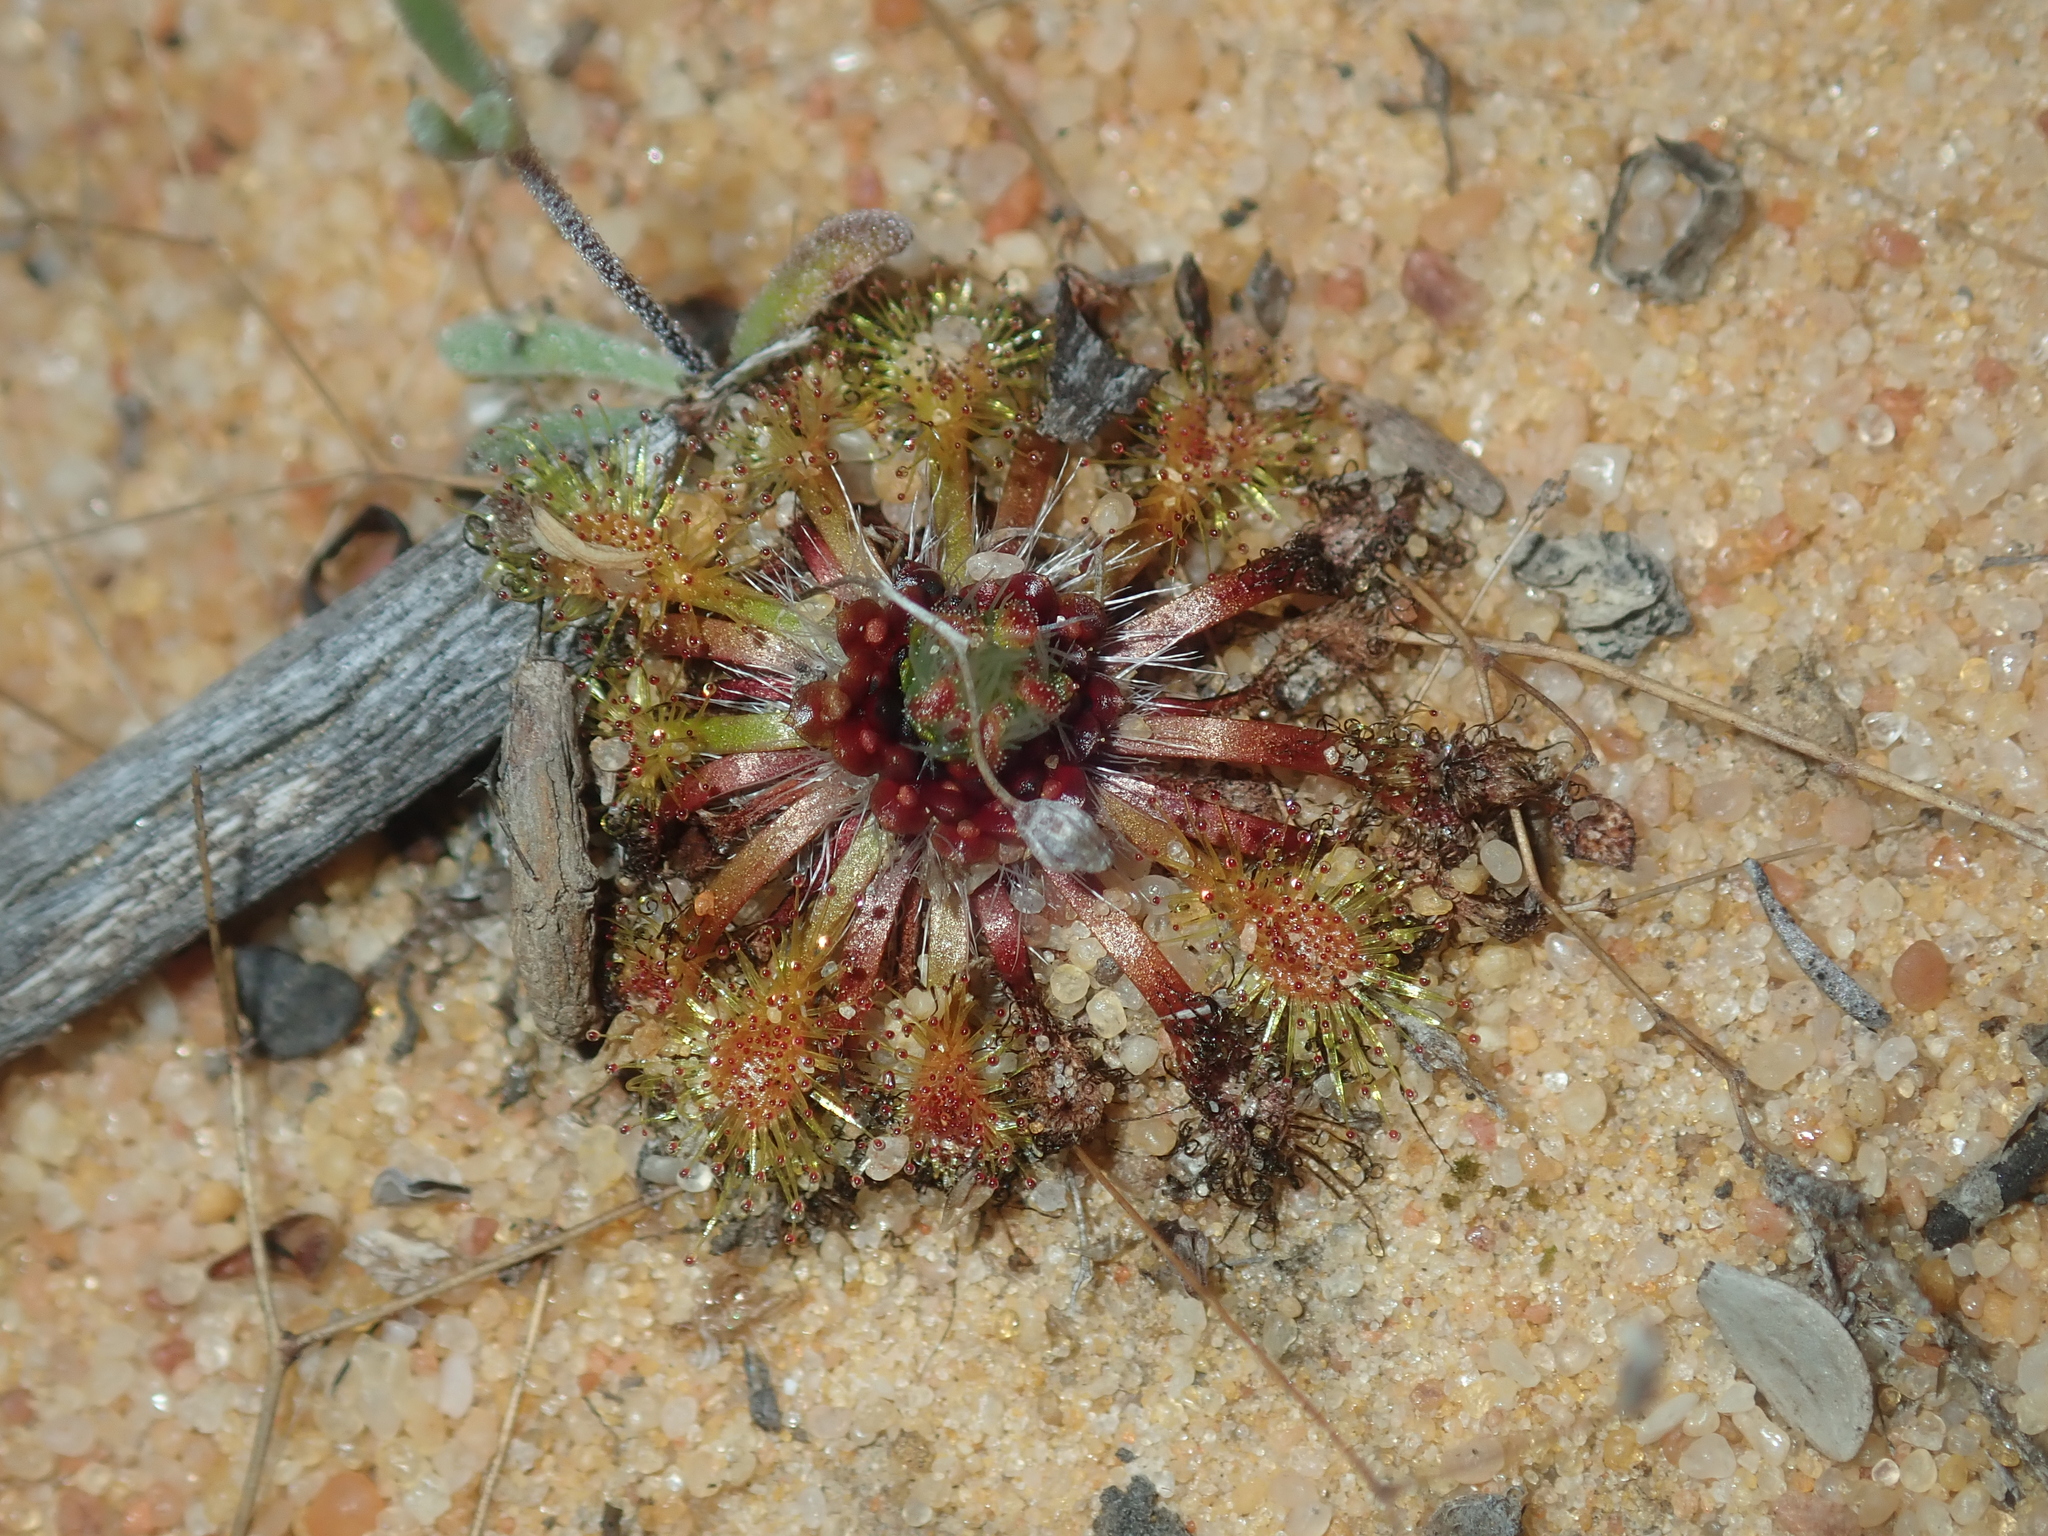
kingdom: Plantae
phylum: Tracheophyta
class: Magnoliopsida
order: Caryophyllales
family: Droseraceae
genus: Drosera
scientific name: Drosera nitidula
